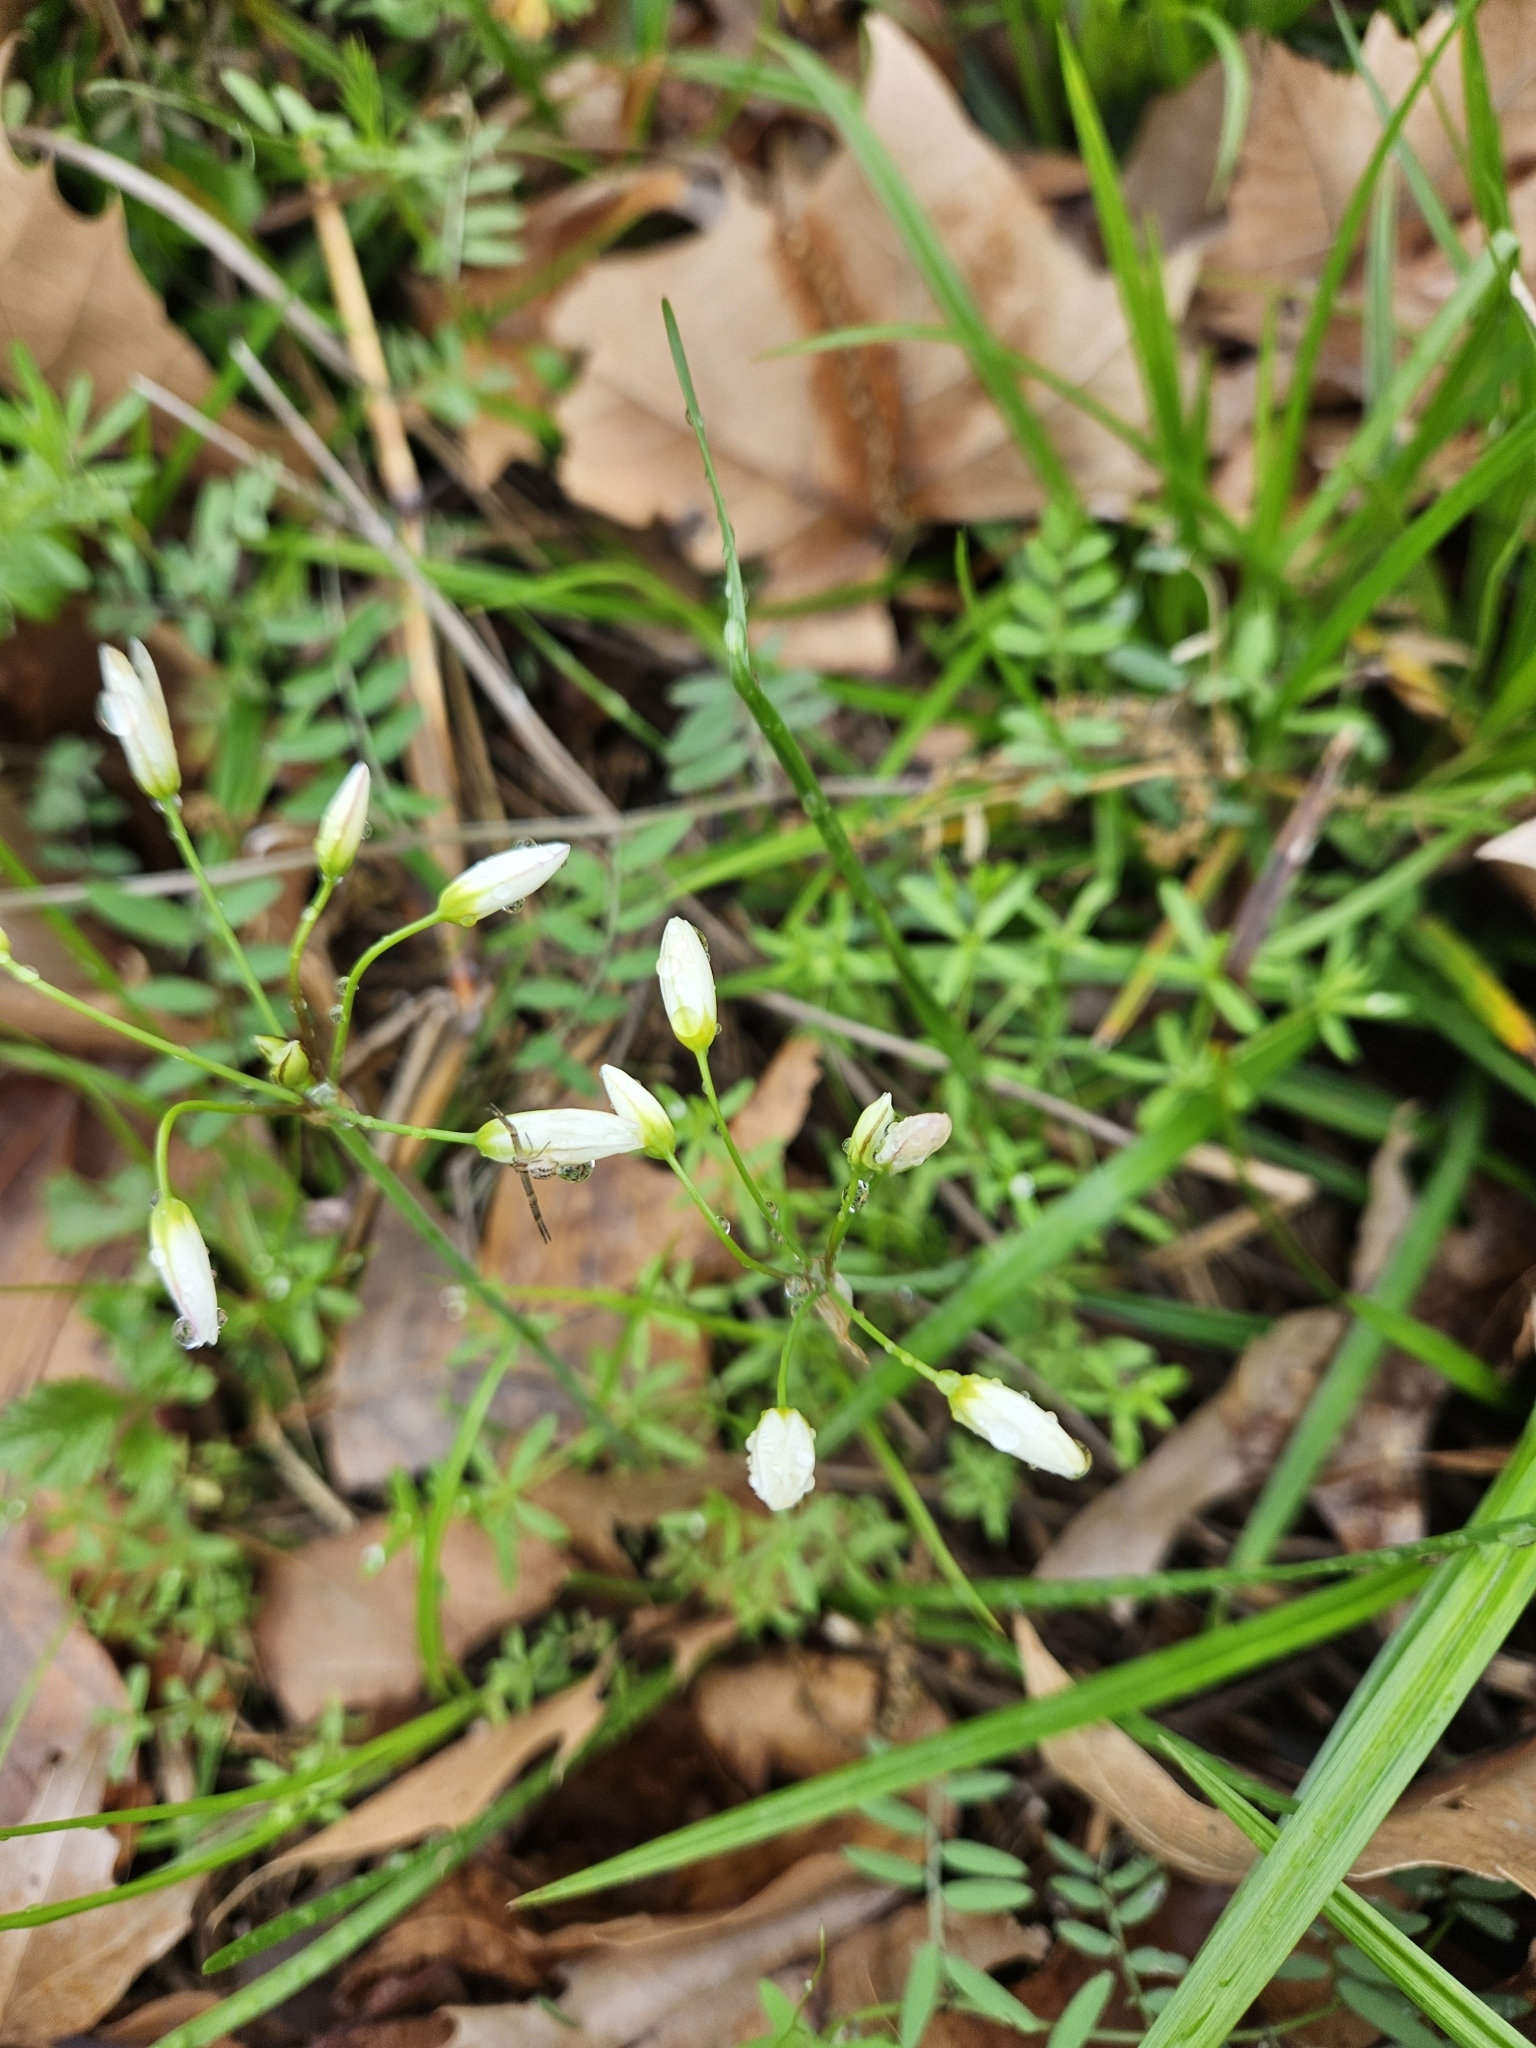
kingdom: Plantae
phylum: Tracheophyta
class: Liliopsida
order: Asparagales
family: Amaryllidaceae
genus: Nothoscordum
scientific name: Nothoscordum bivalve
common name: Crow-poison
